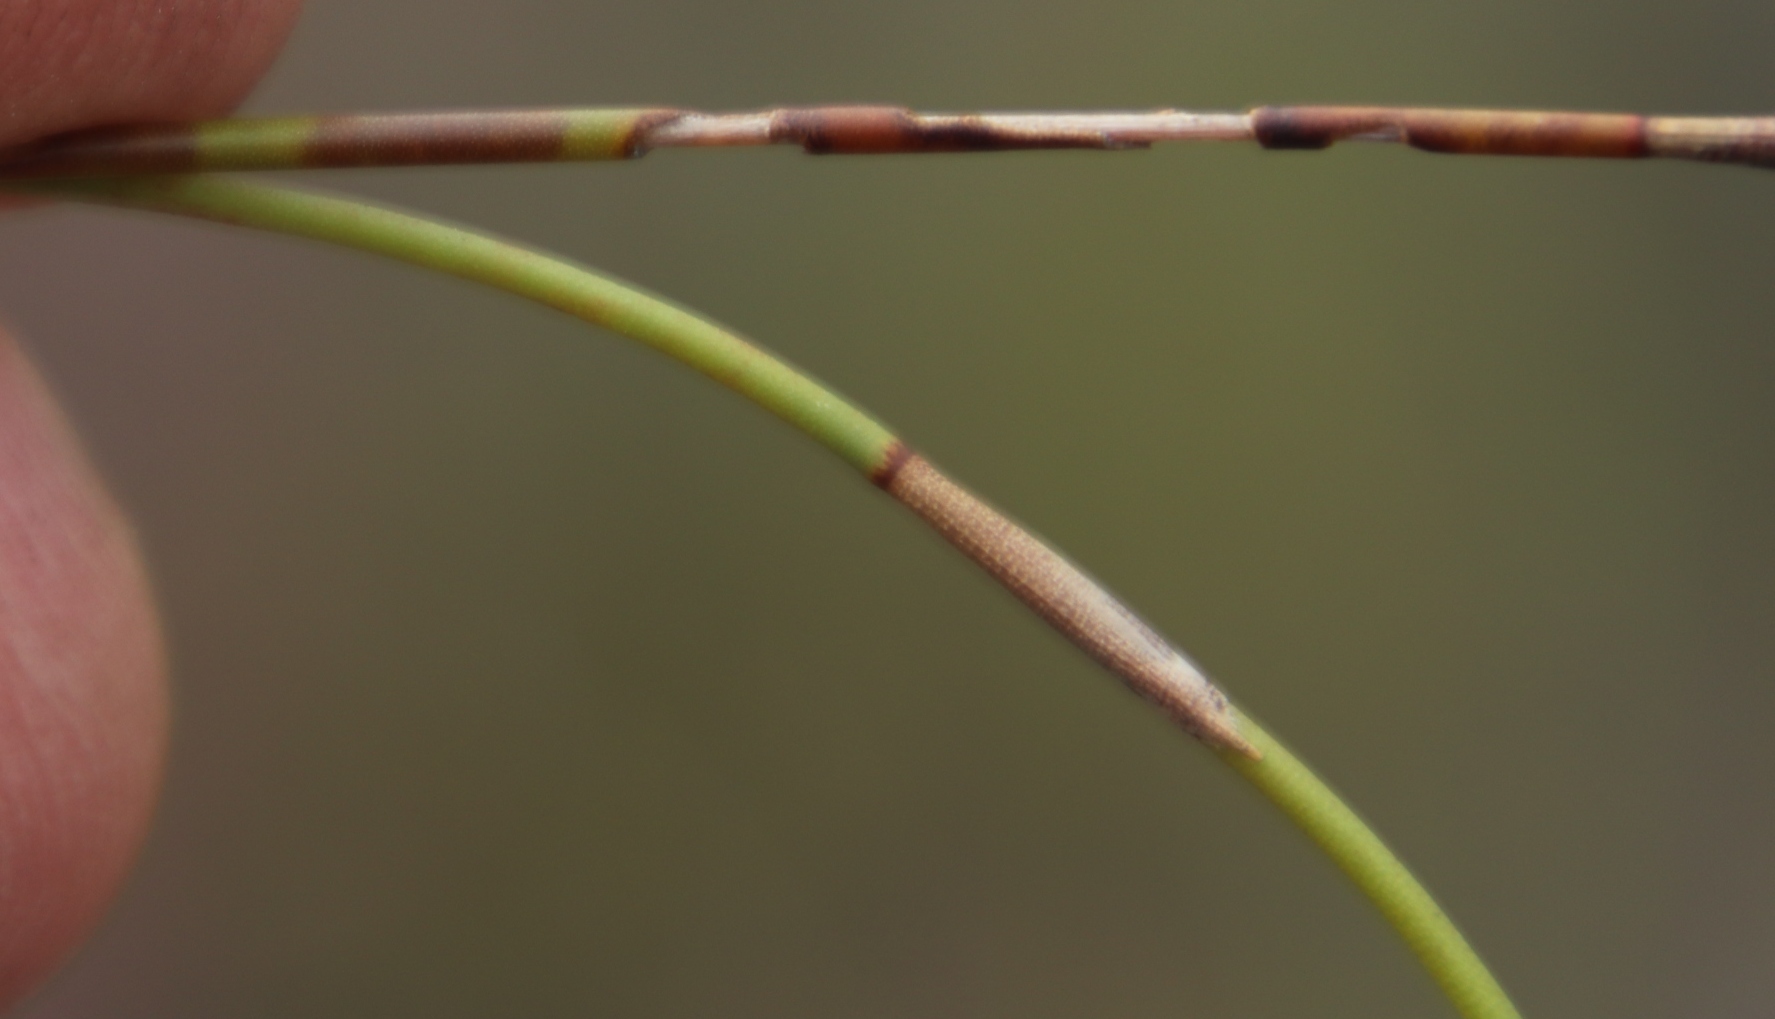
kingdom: Plantae
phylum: Tracheophyta
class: Liliopsida
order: Poales
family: Restionaceae
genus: Restio
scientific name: Restio bifurcus
